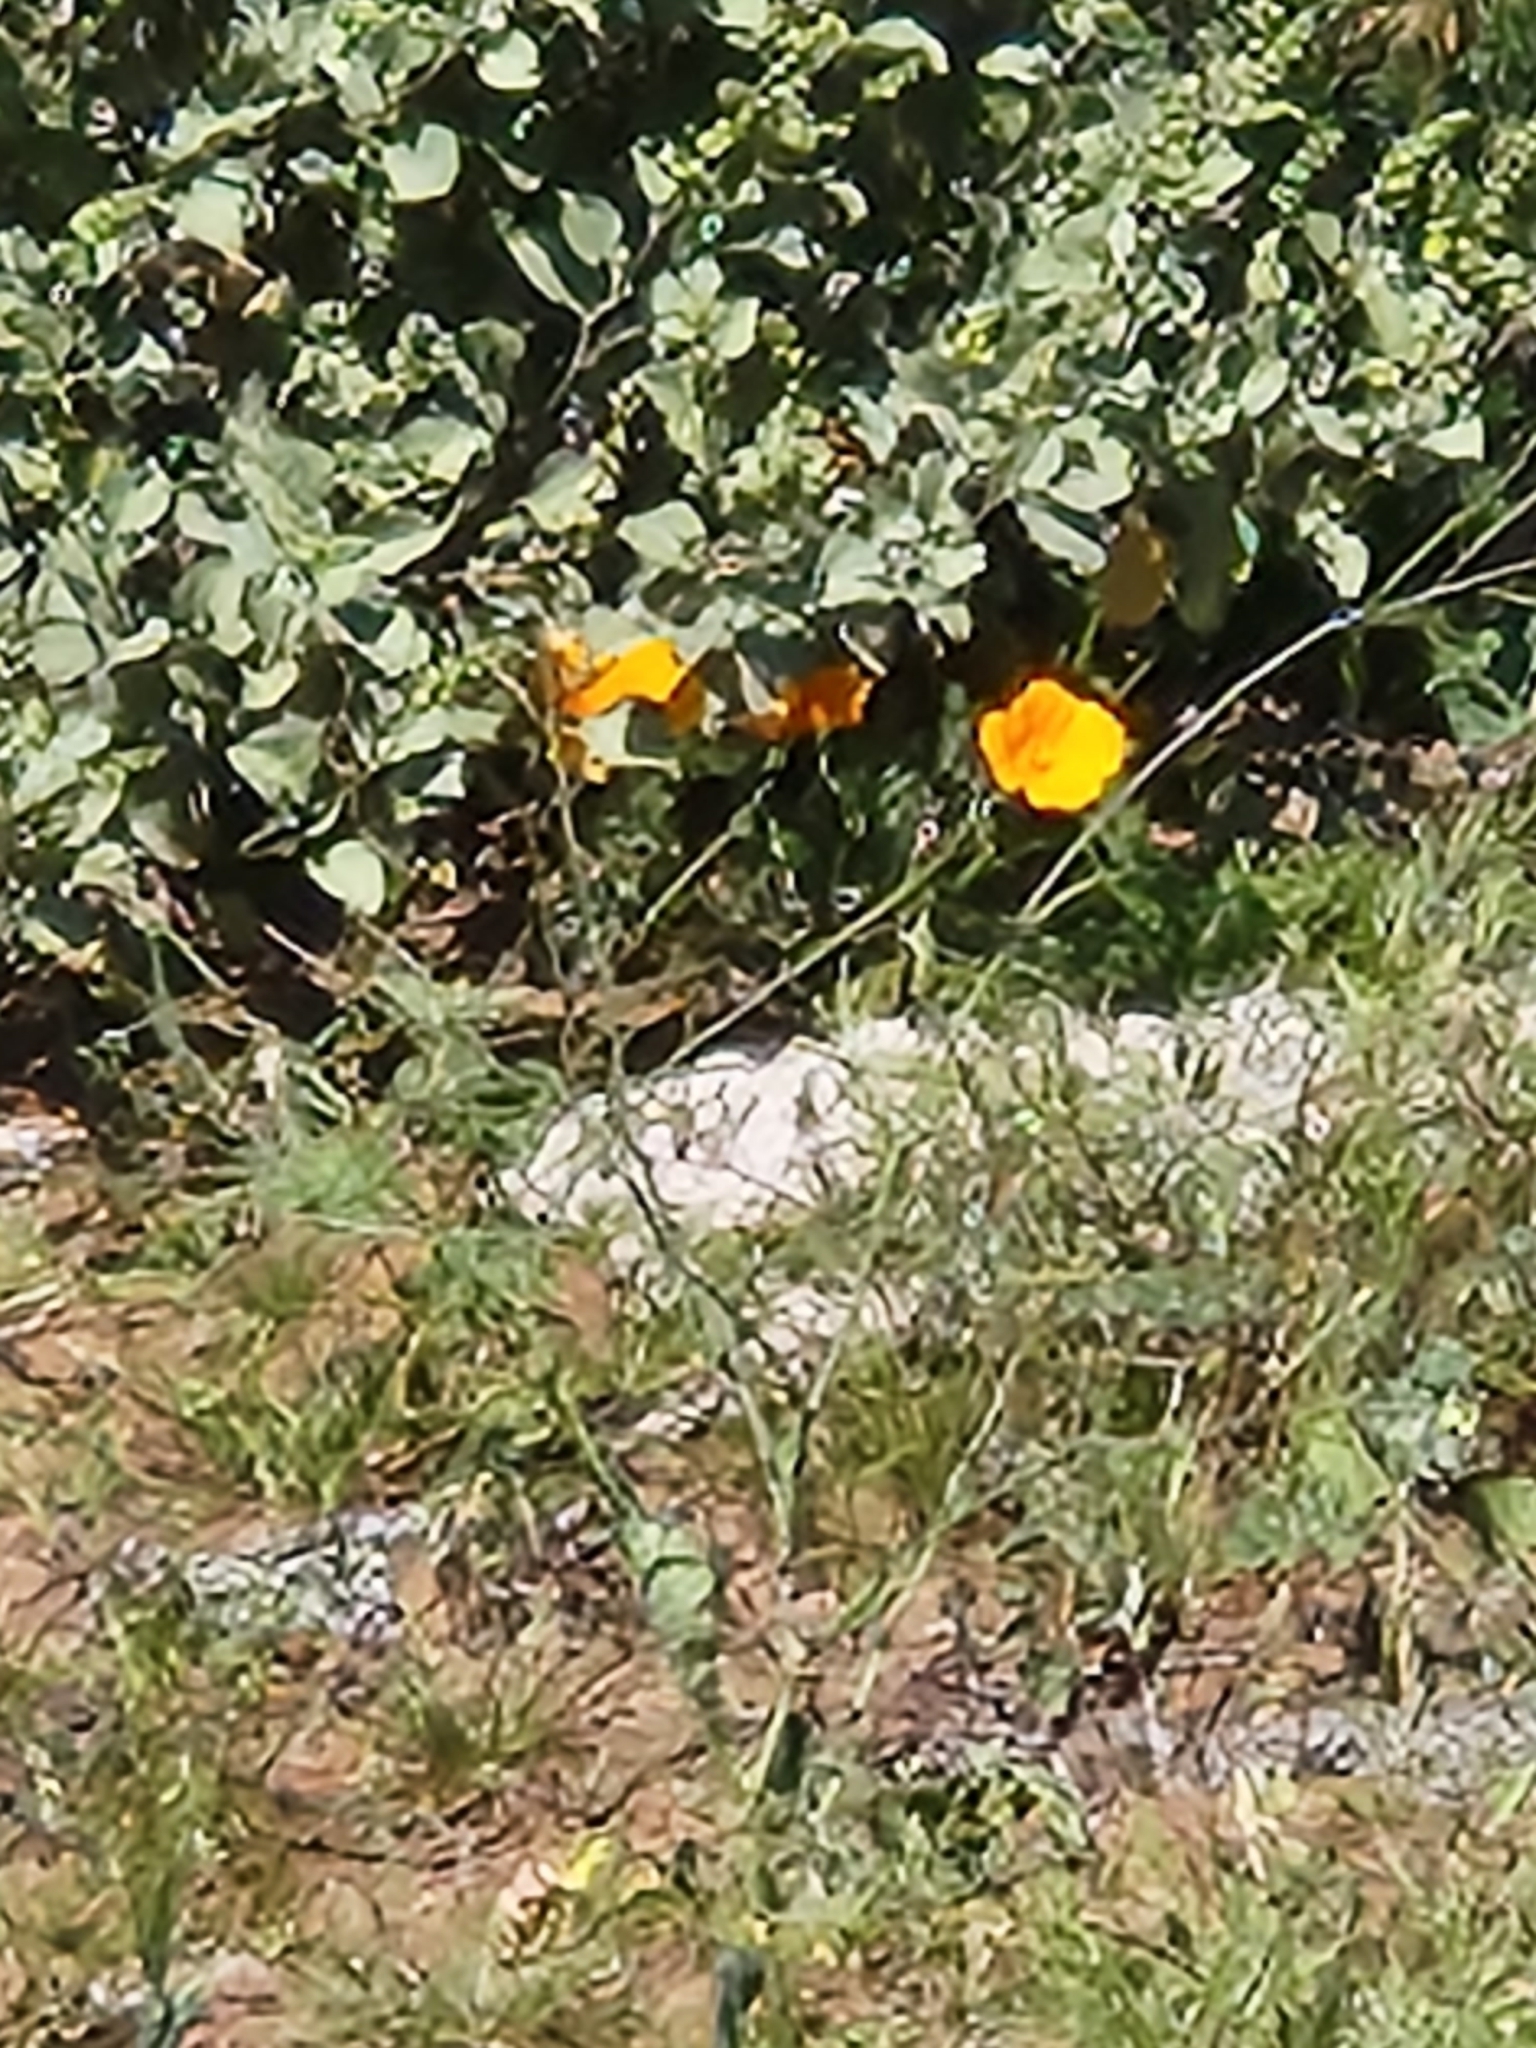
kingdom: Plantae
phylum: Tracheophyta
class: Magnoliopsida
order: Ranunculales
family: Papaveraceae
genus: Eschscholzia
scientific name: Eschscholzia californica
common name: California poppy
